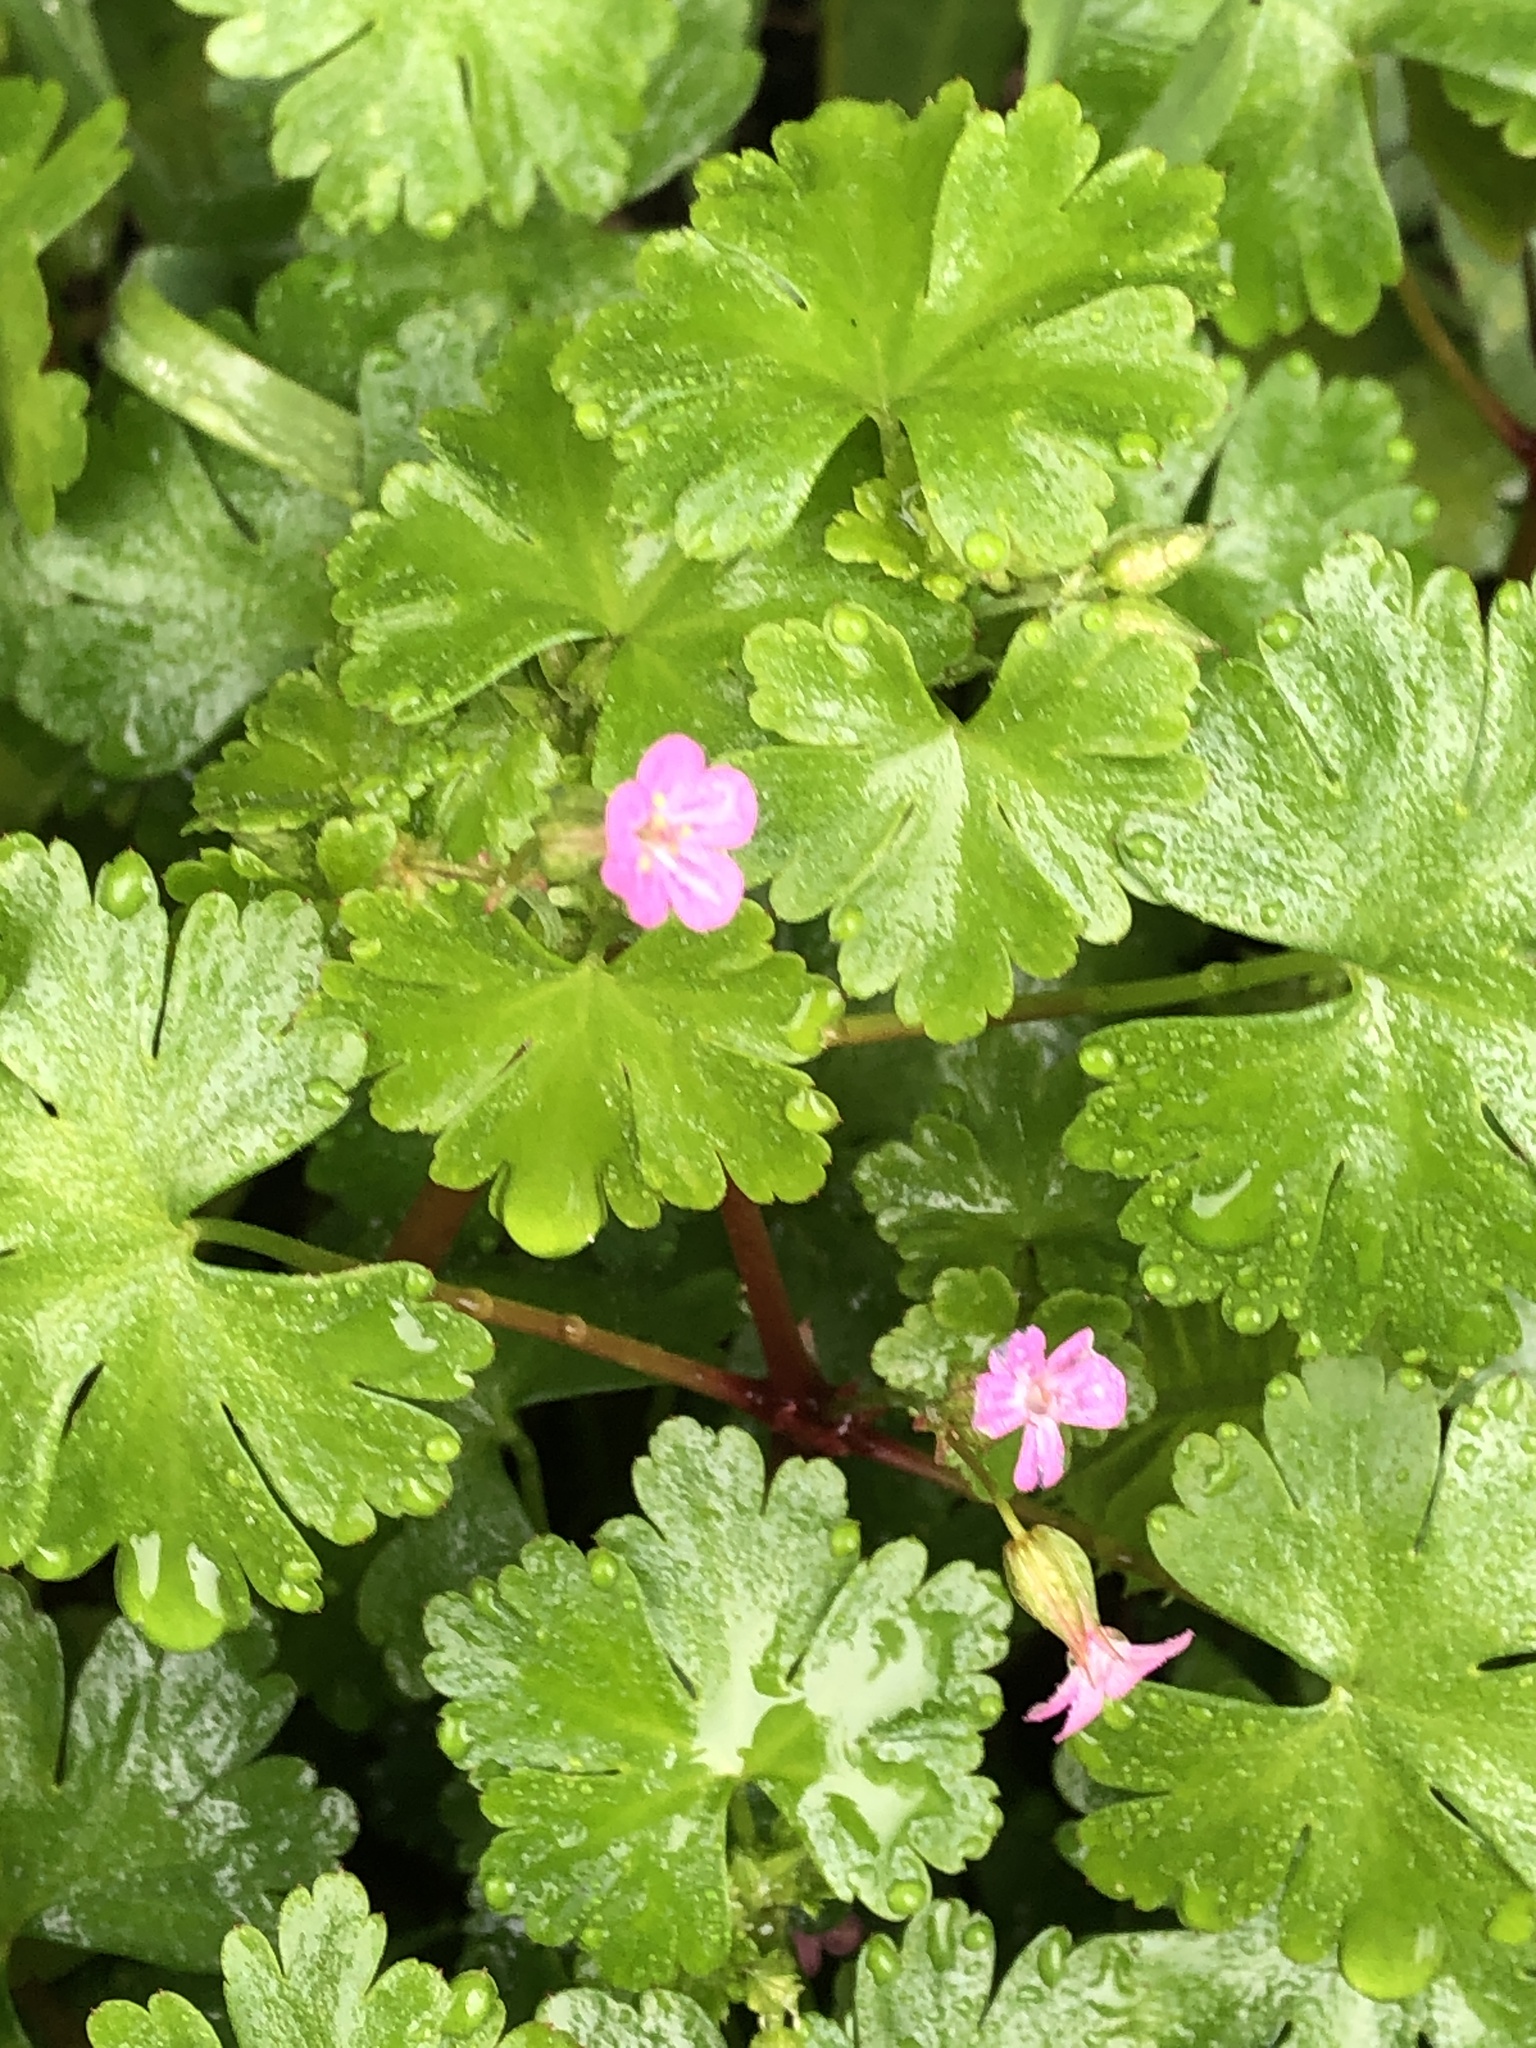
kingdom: Plantae
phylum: Tracheophyta
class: Magnoliopsida
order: Geraniales
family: Geraniaceae
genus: Geranium
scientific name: Geranium lucidum
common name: Shining crane's-bill
